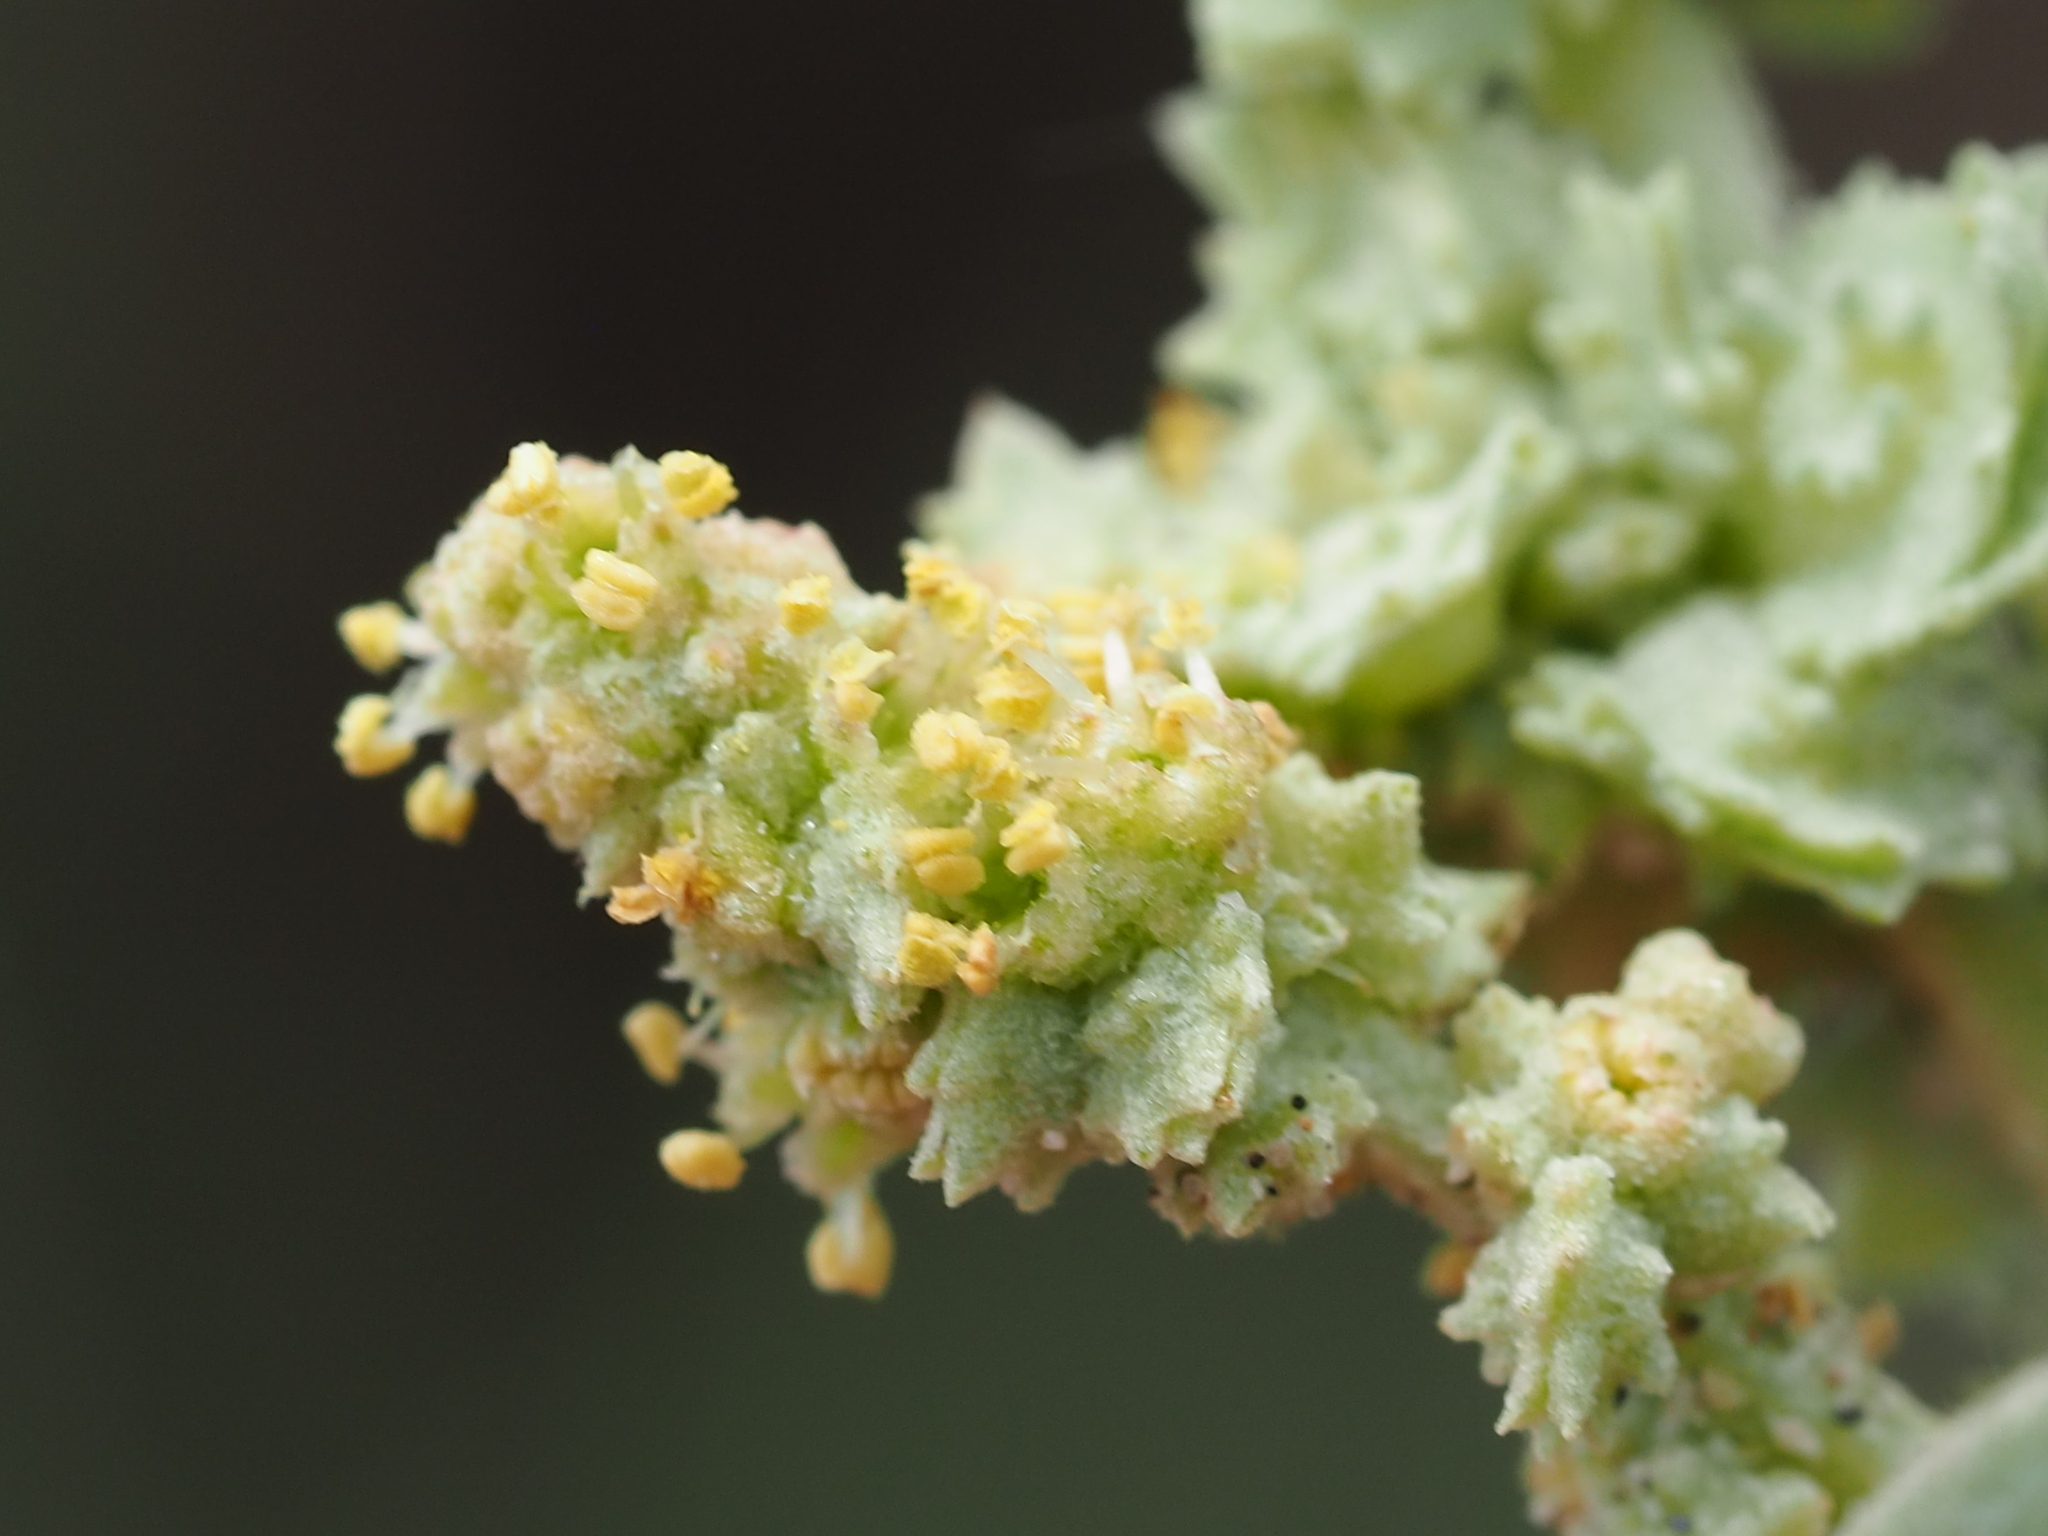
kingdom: Plantae
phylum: Tracheophyta
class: Magnoliopsida
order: Caryophyllales
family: Amaranthaceae
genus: Atriplex
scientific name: Atriplex maximowicziana
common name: Maximowicz's saltbush
